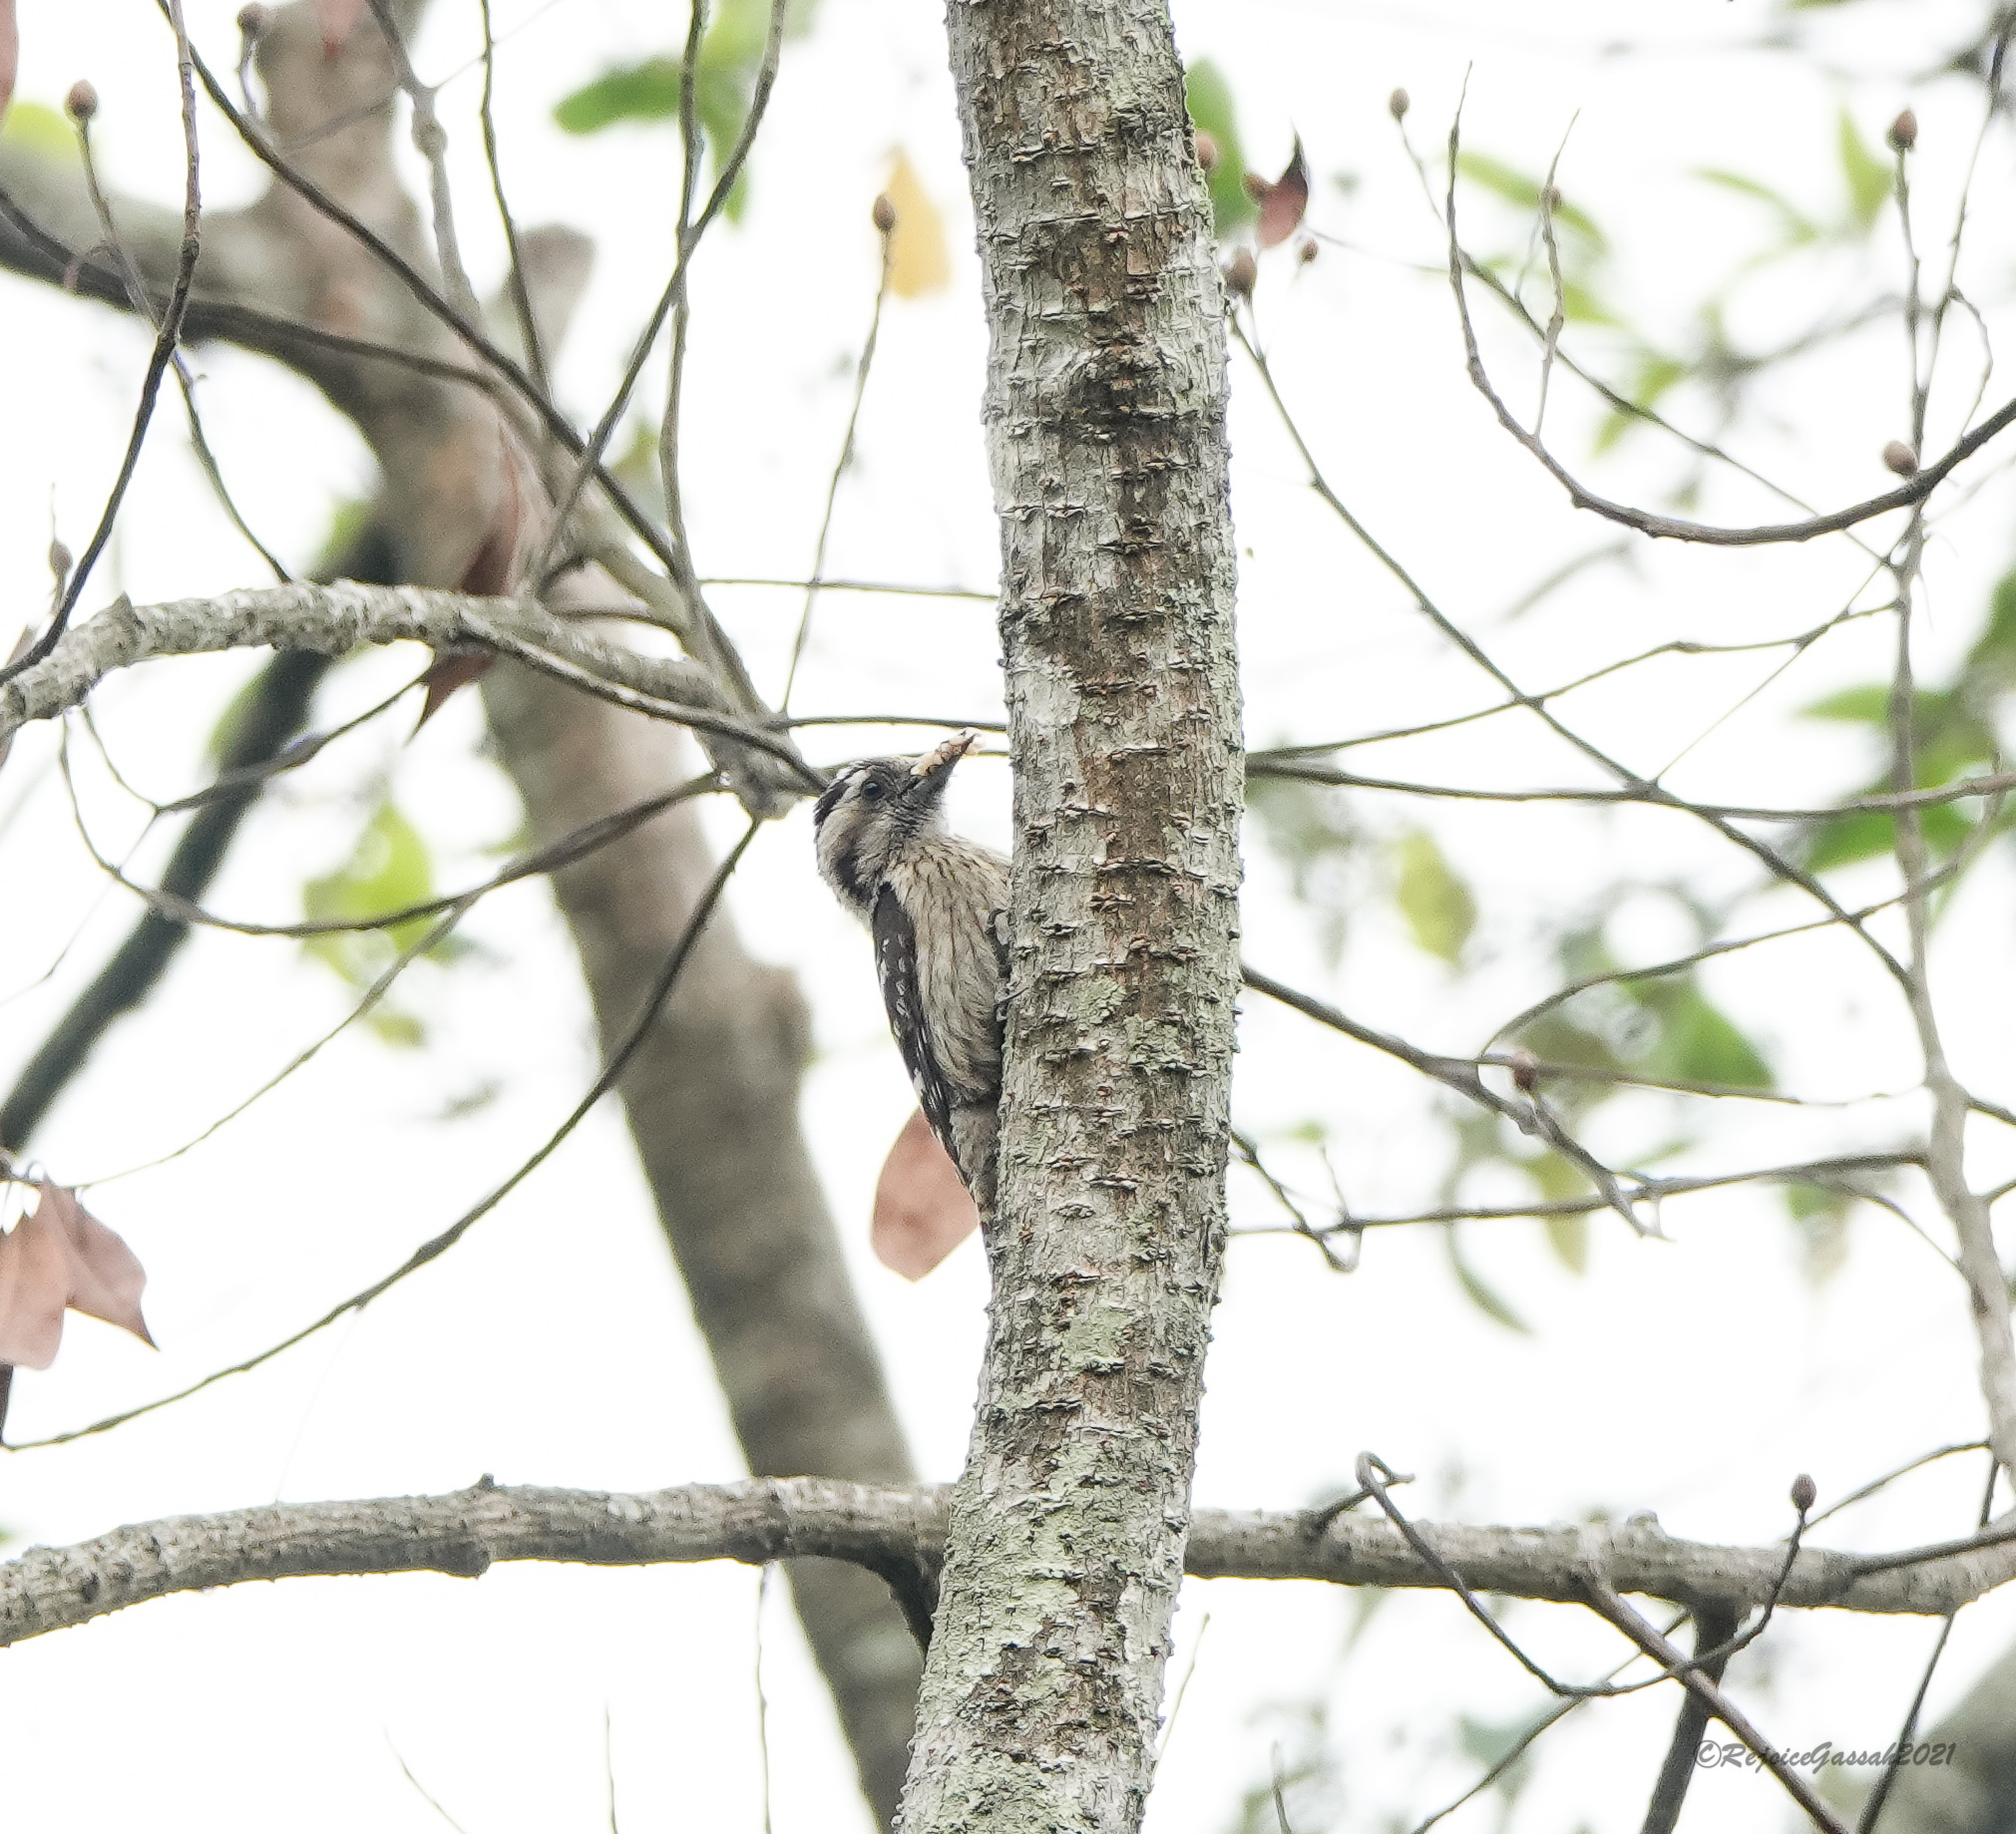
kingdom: Animalia
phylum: Chordata
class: Aves
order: Piciformes
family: Picidae
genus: Yungipicus
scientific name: Yungipicus canicapillus
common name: Grey-capped pygmy woodpecker
